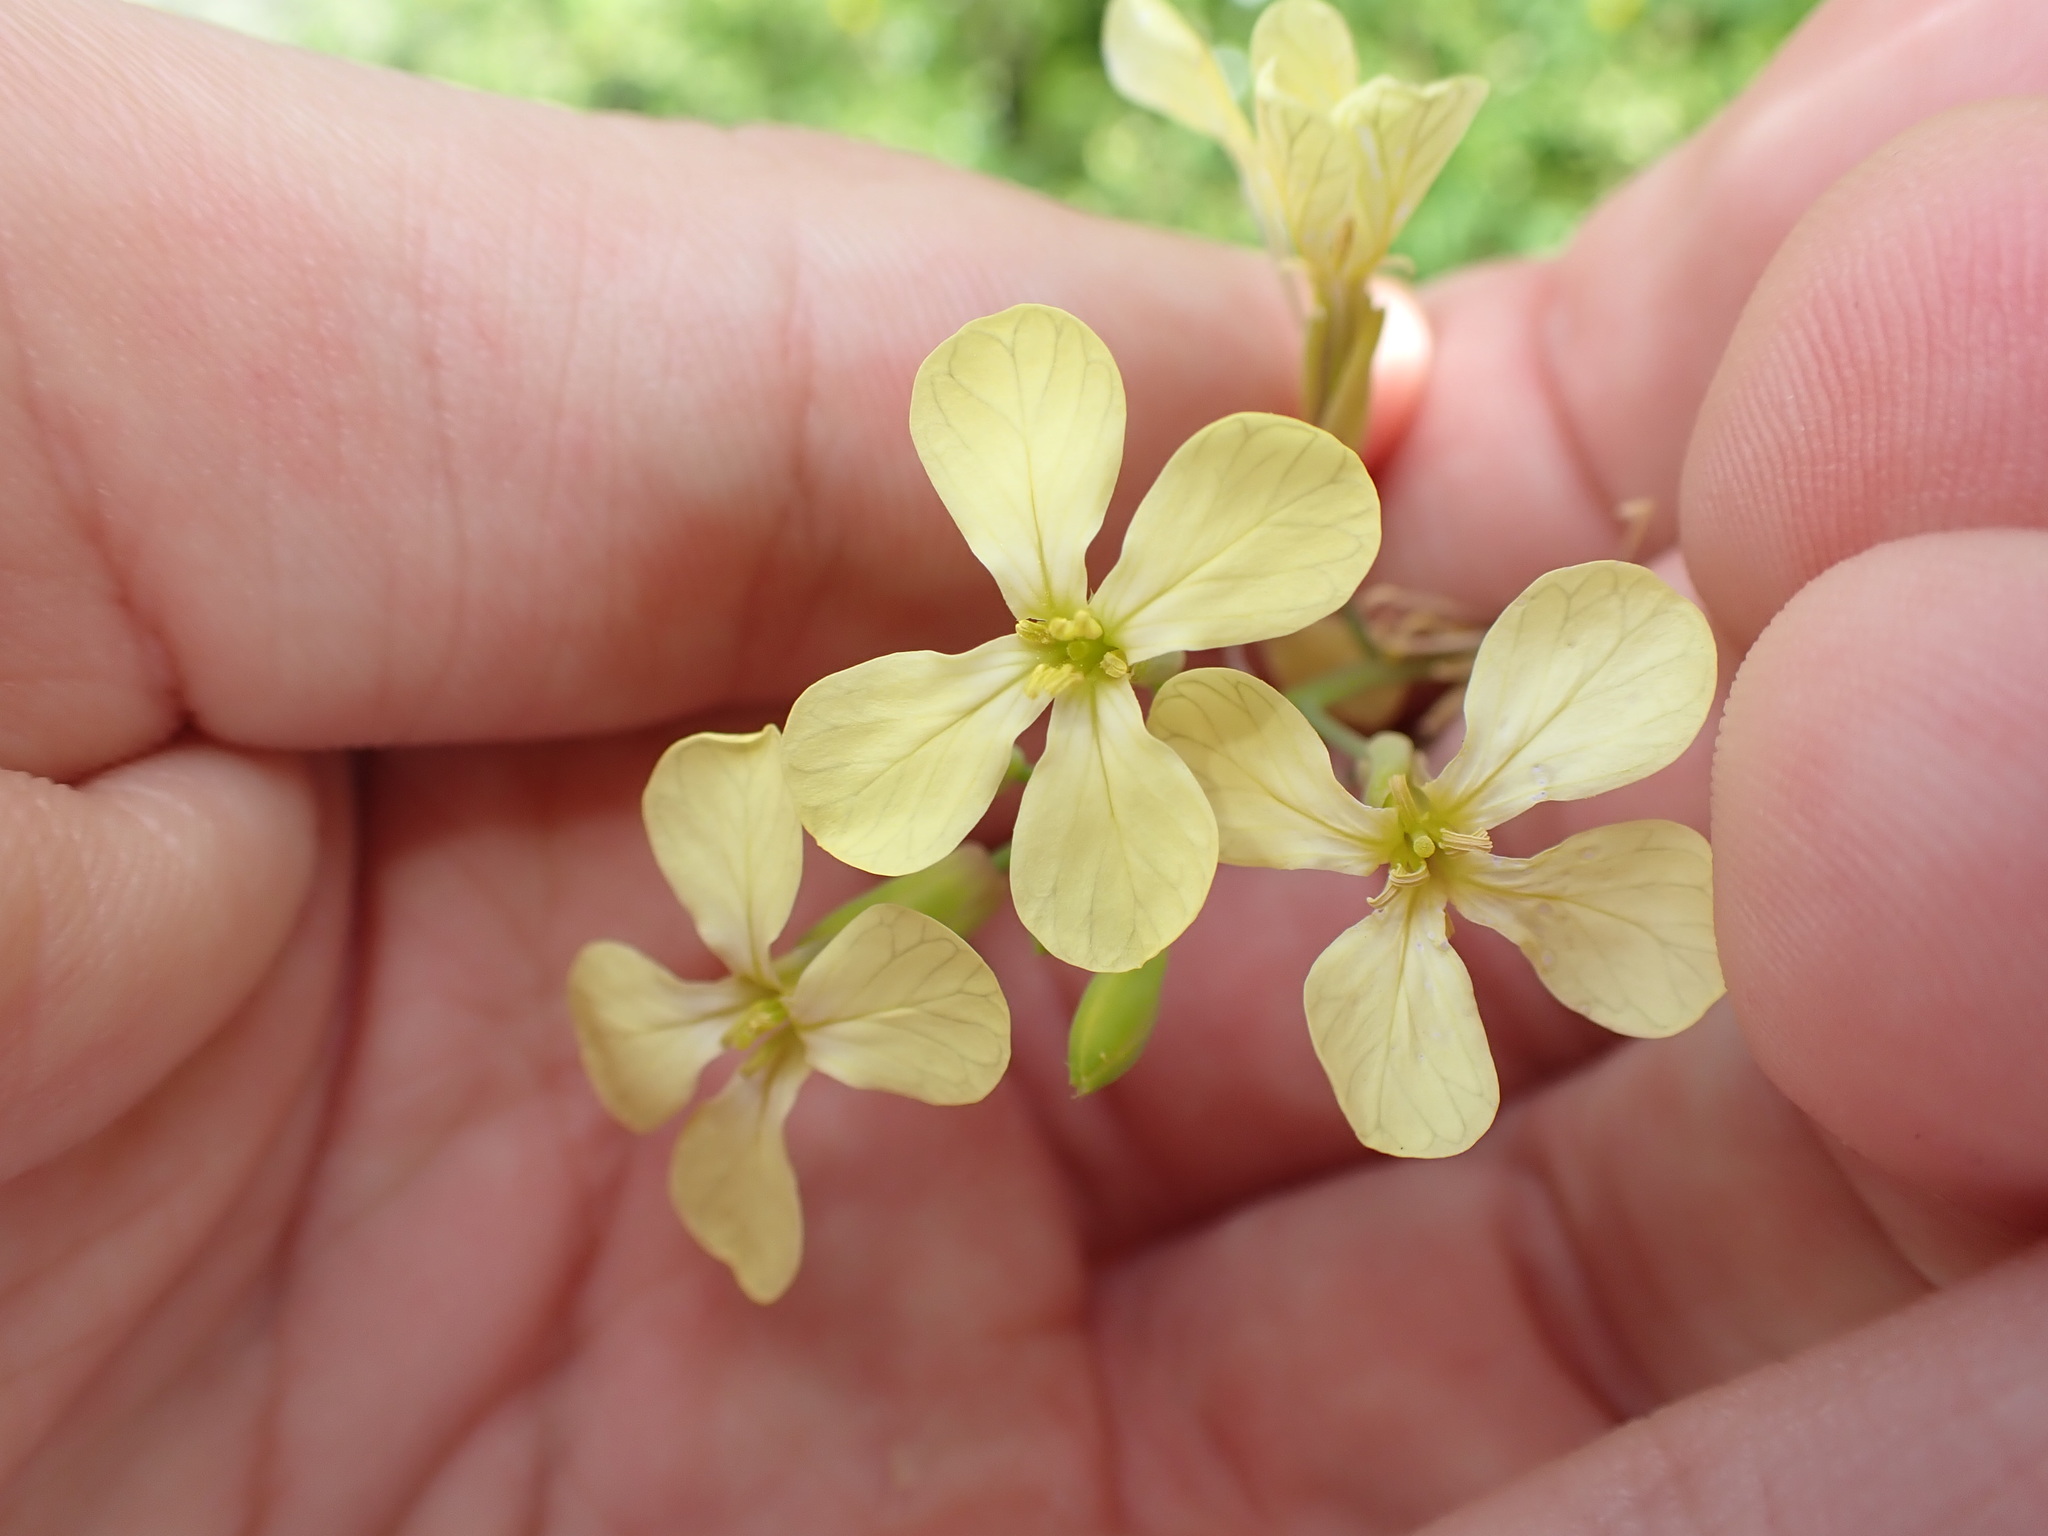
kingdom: Plantae
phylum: Tracheophyta
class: Magnoliopsida
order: Brassicales
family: Brassicaceae
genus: Raphanus
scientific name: Raphanus raphanistrum
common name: Wild radish
